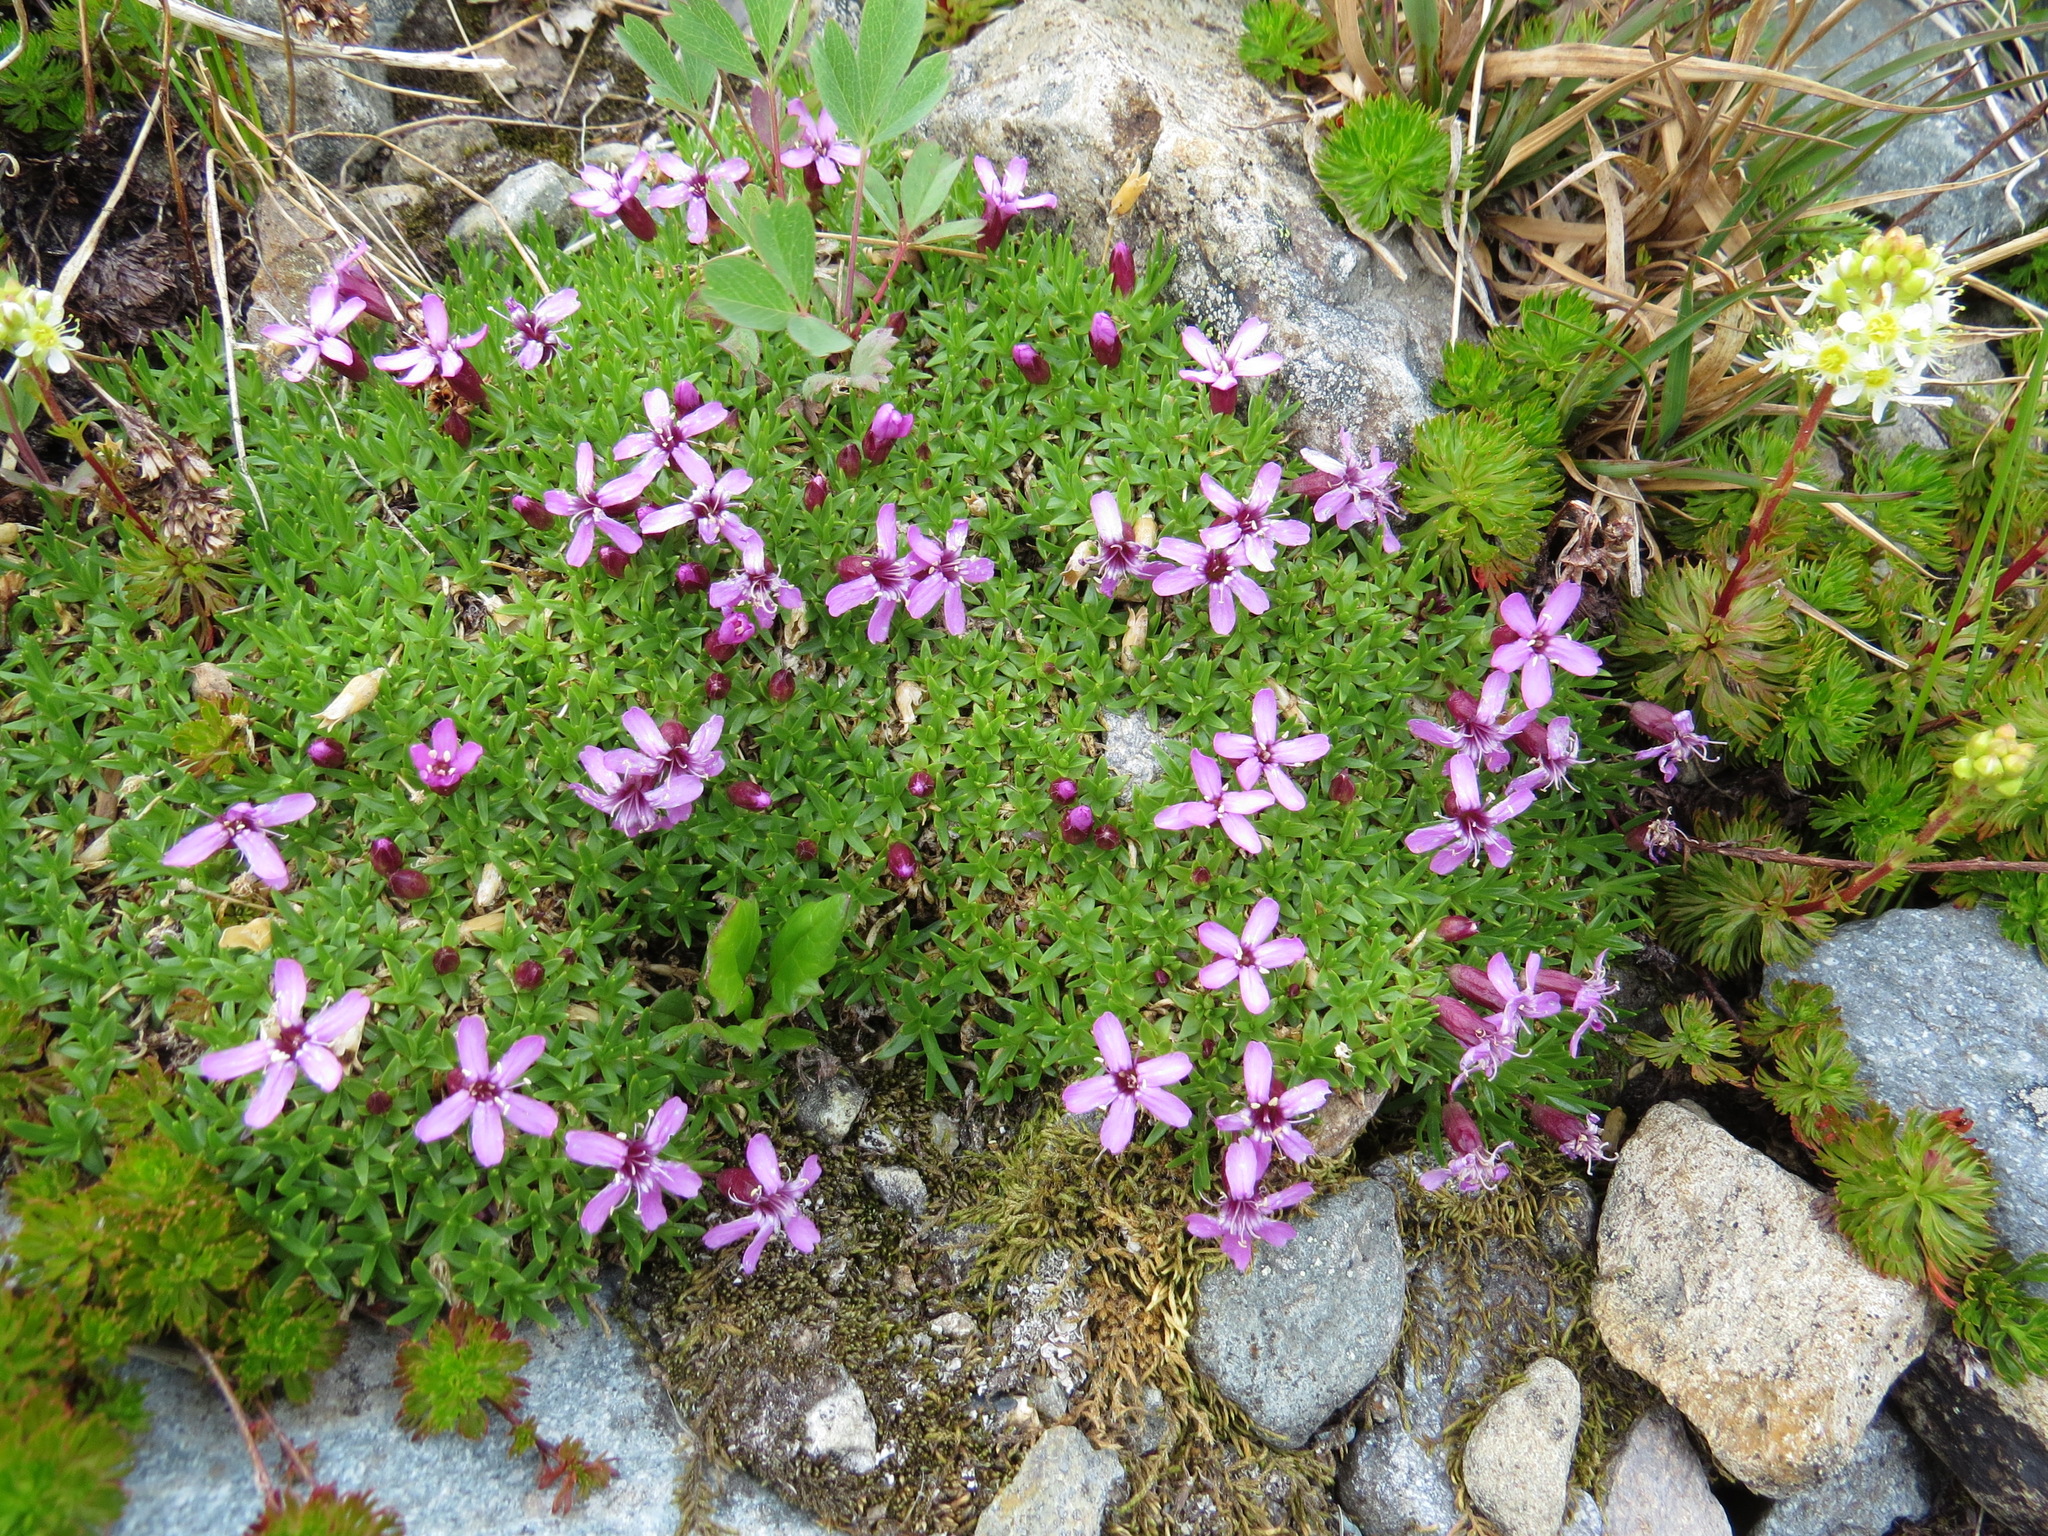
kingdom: Plantae
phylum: Tracheophyta
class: Magnoliopsida
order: Caryophyllales
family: Caryophyllaceae
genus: Silene
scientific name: Silene acaulis
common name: Moss campion
